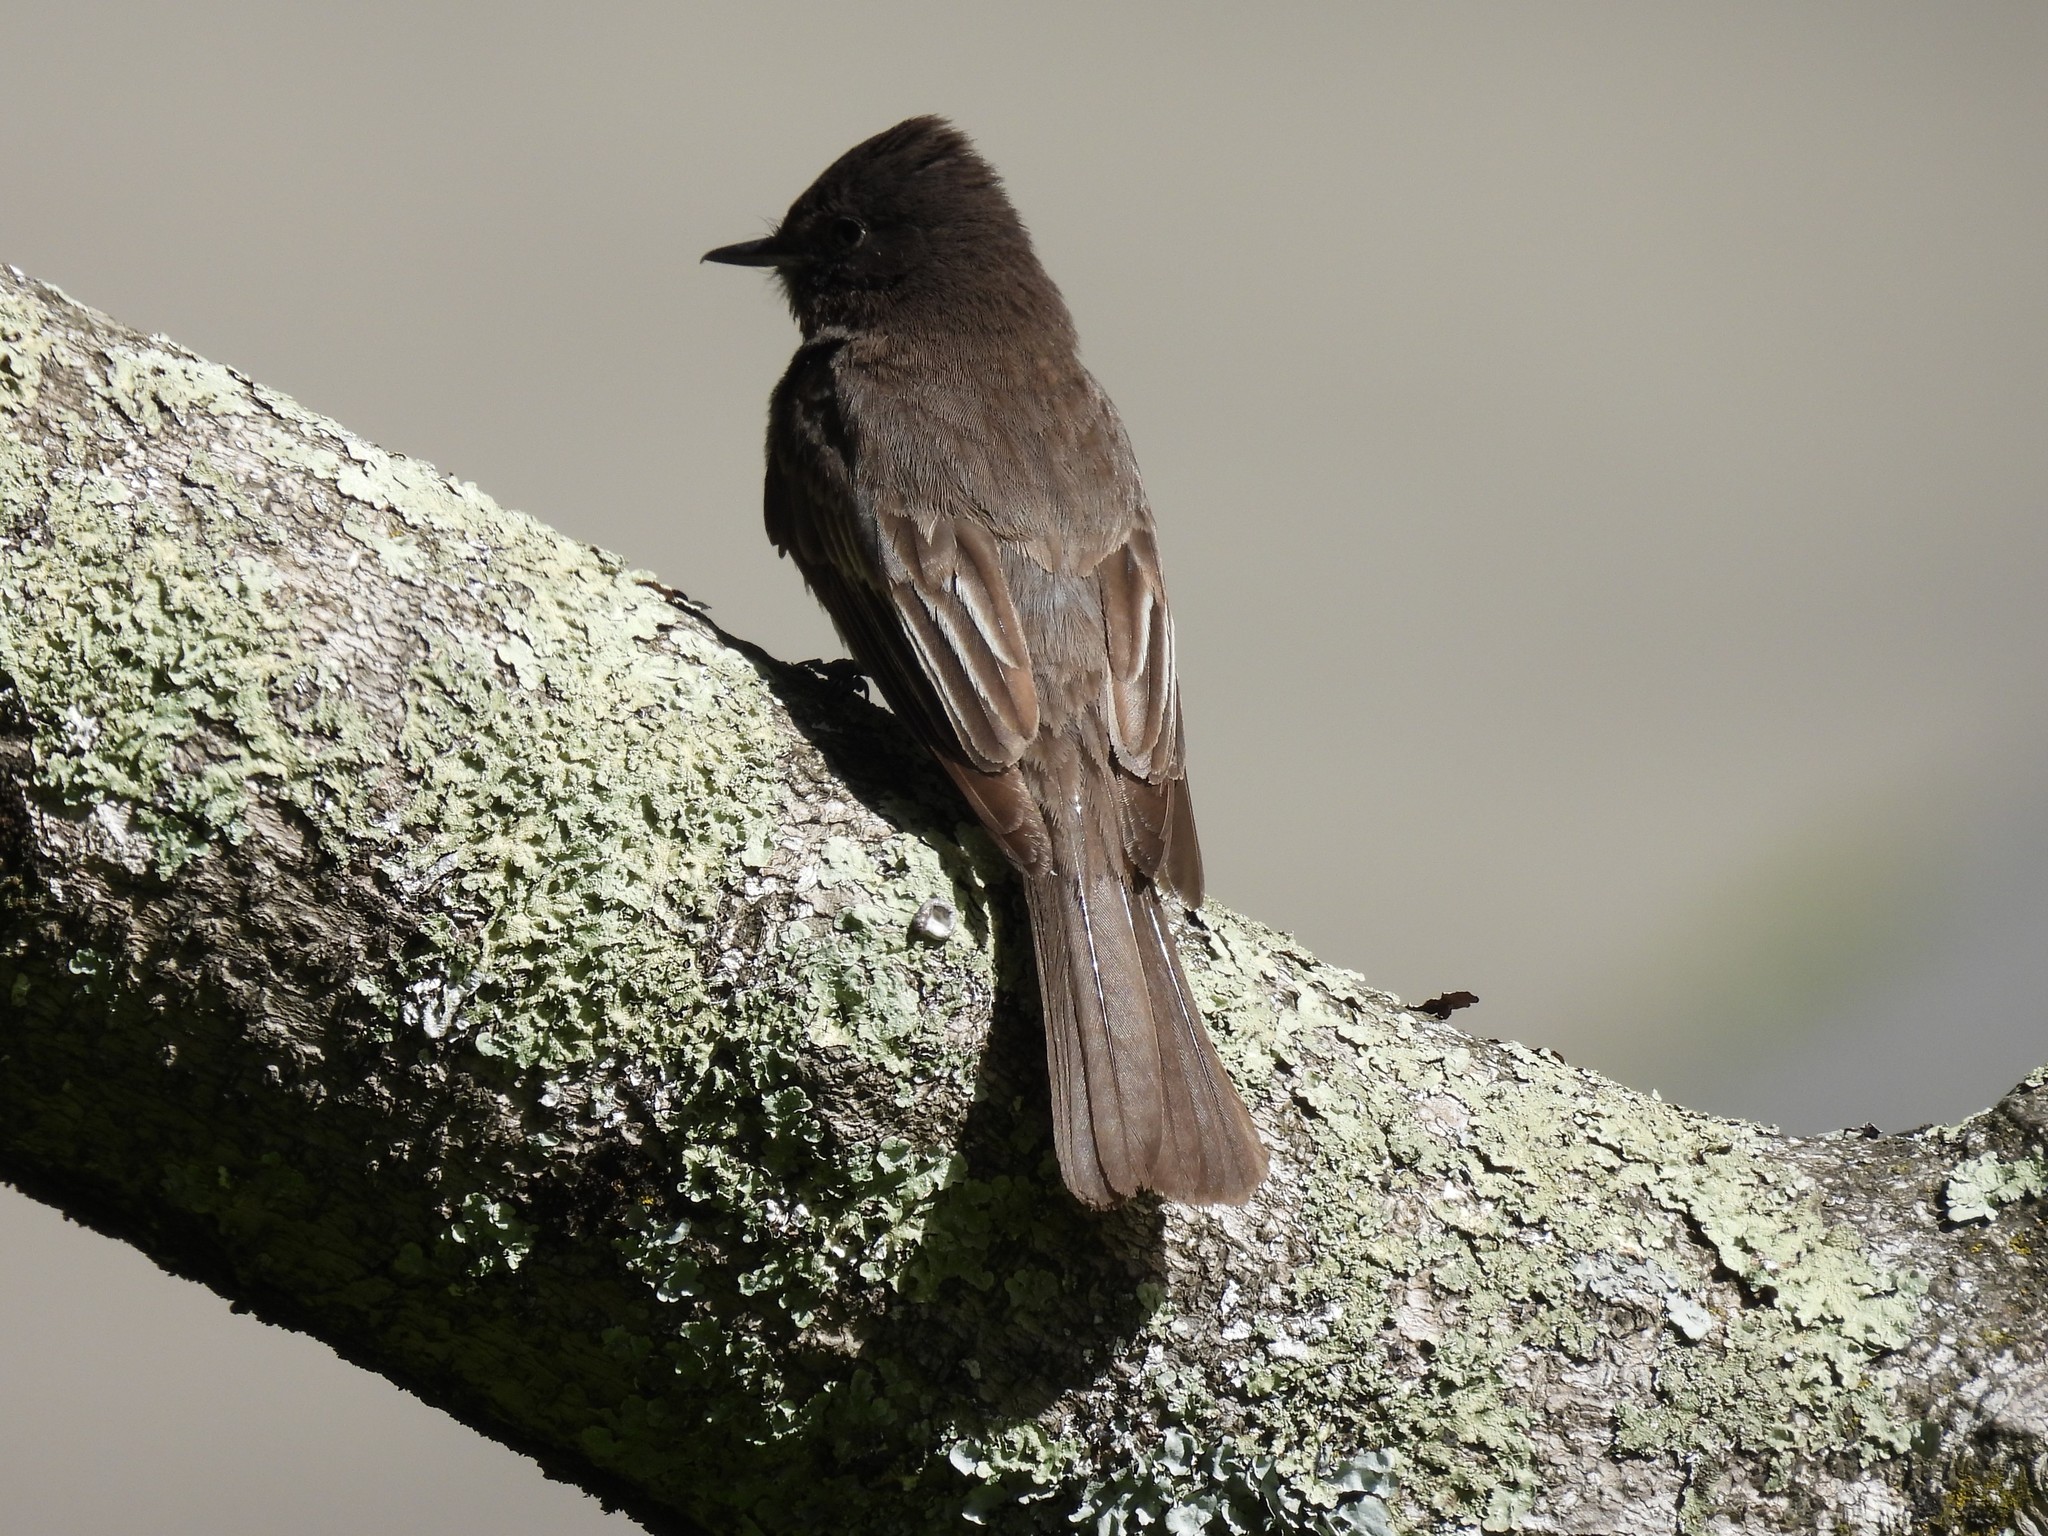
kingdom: Animalia
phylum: Chordata
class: Aves
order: Passeriformes
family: Tyrannidae
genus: Sayornis
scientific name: Sayornis nigricans
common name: Black phoebe
